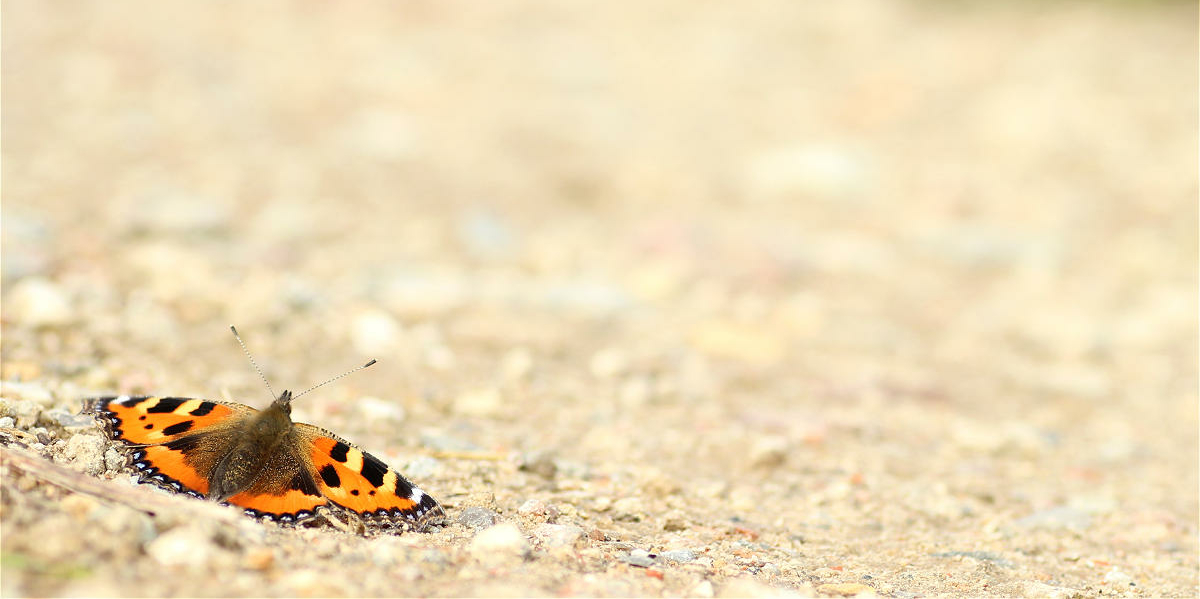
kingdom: Animalia
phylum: Arthropoda
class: Insecta
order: Lepidoptera
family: Nymphalidae
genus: Aglais
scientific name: Aglais urticae
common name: Small tortoiseshell
